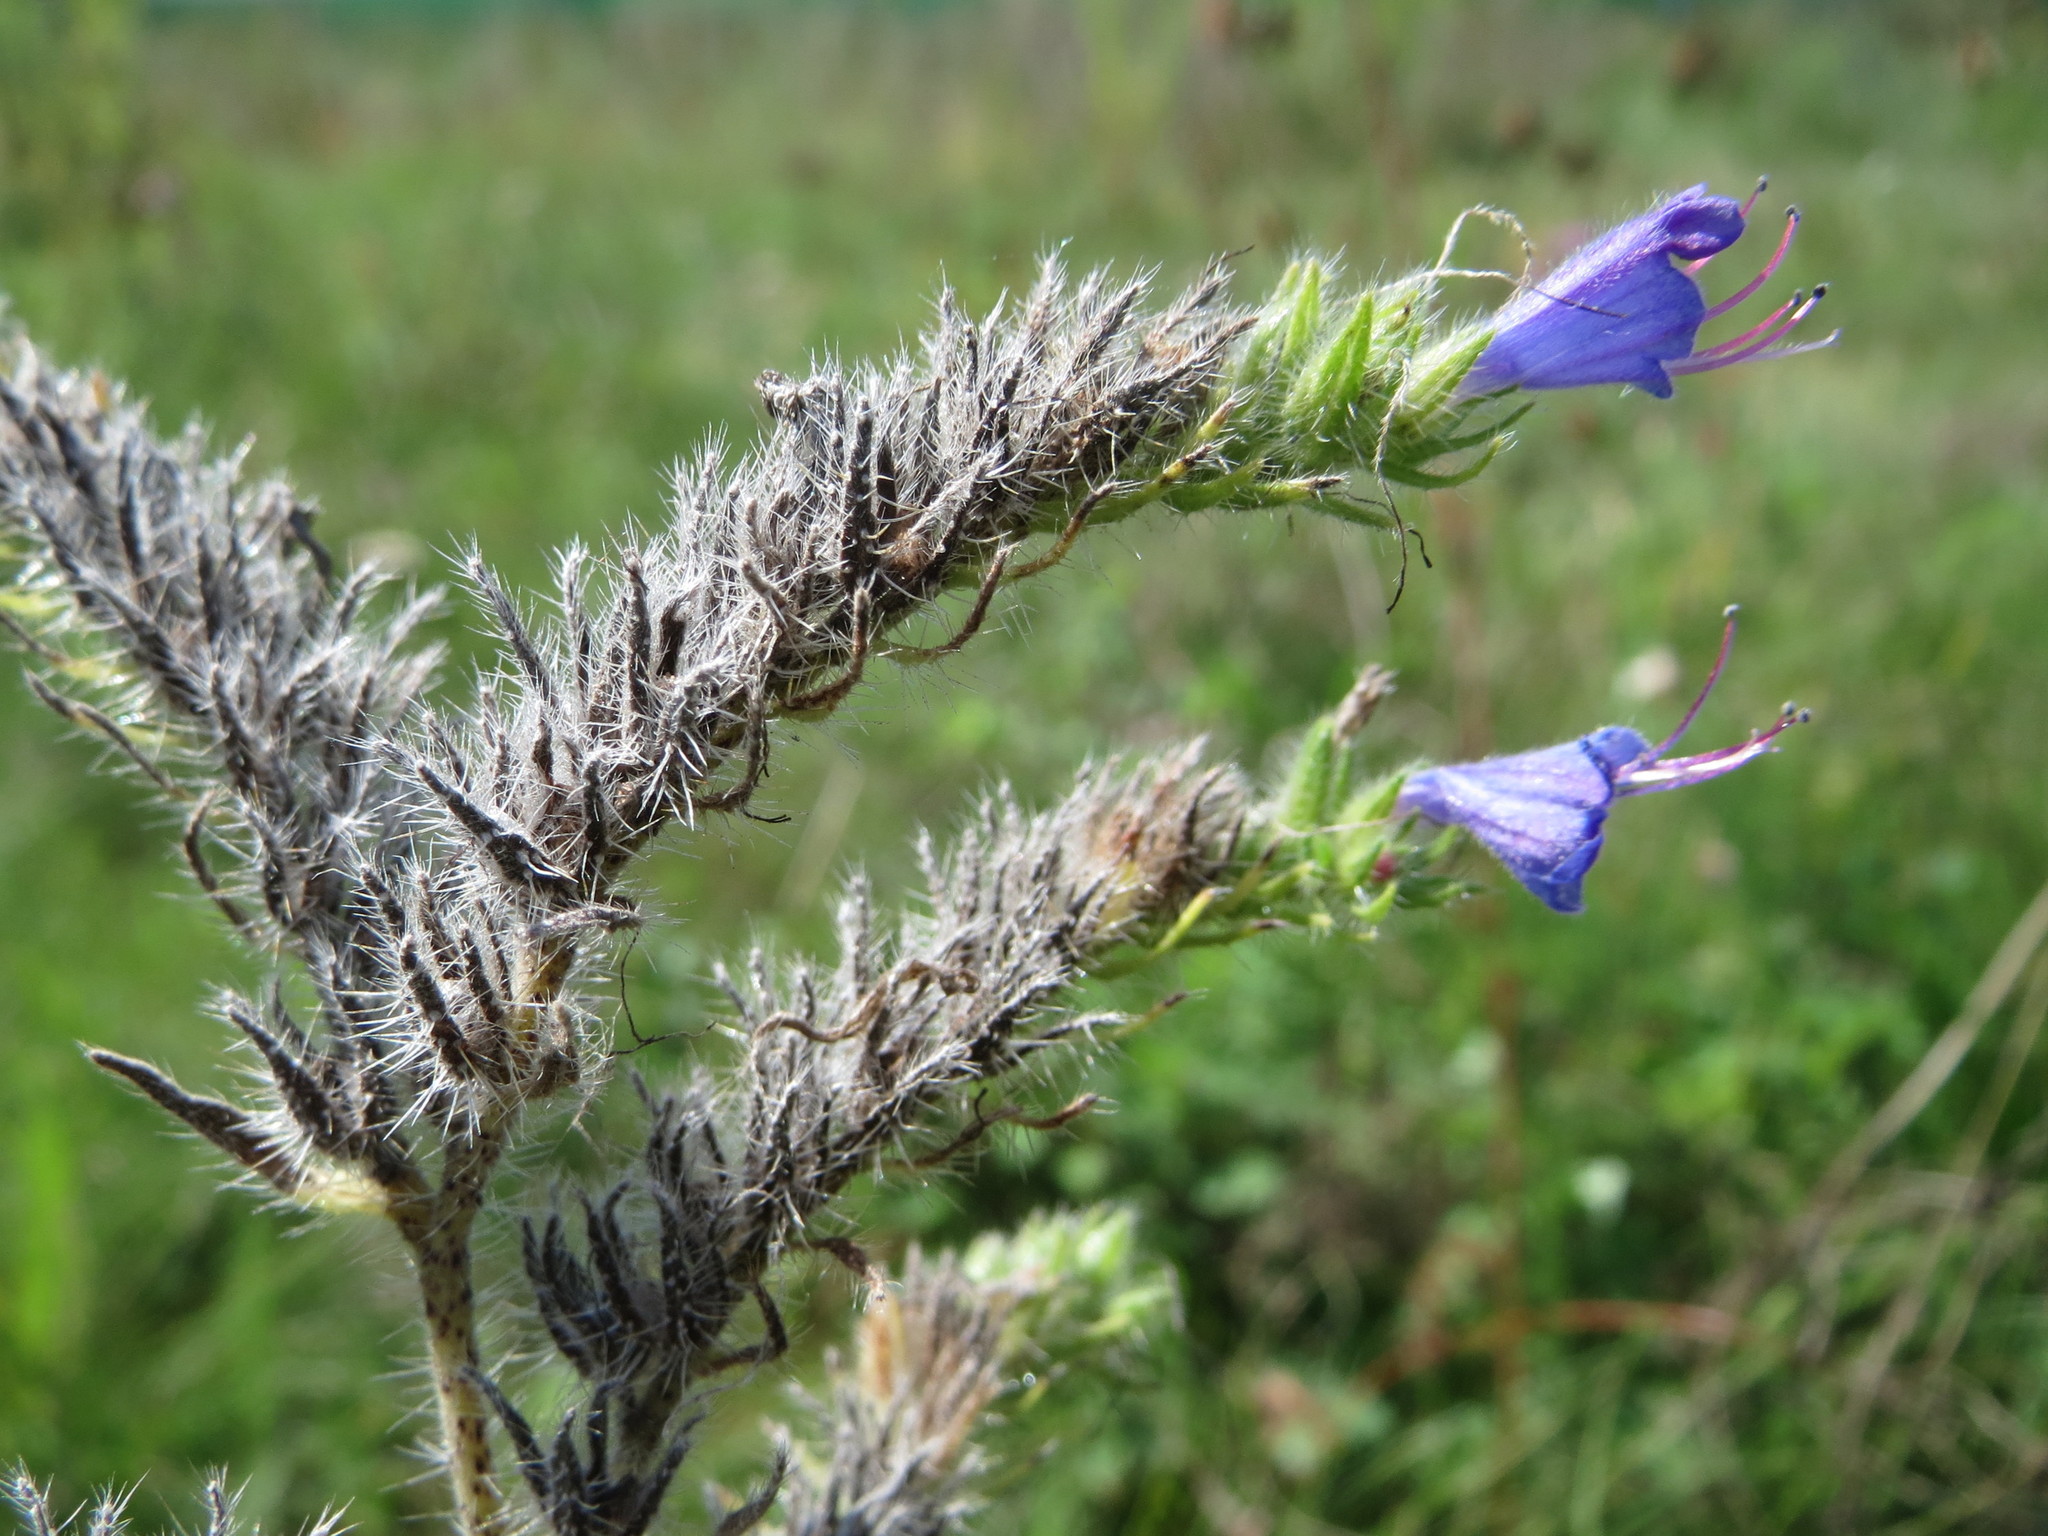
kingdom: Plantae
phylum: Tracheophyta
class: Magnoliopsida
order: Boraginales
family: Boraginaceae
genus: Echium
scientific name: Echium vulgare
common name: Common viper's bugloss
